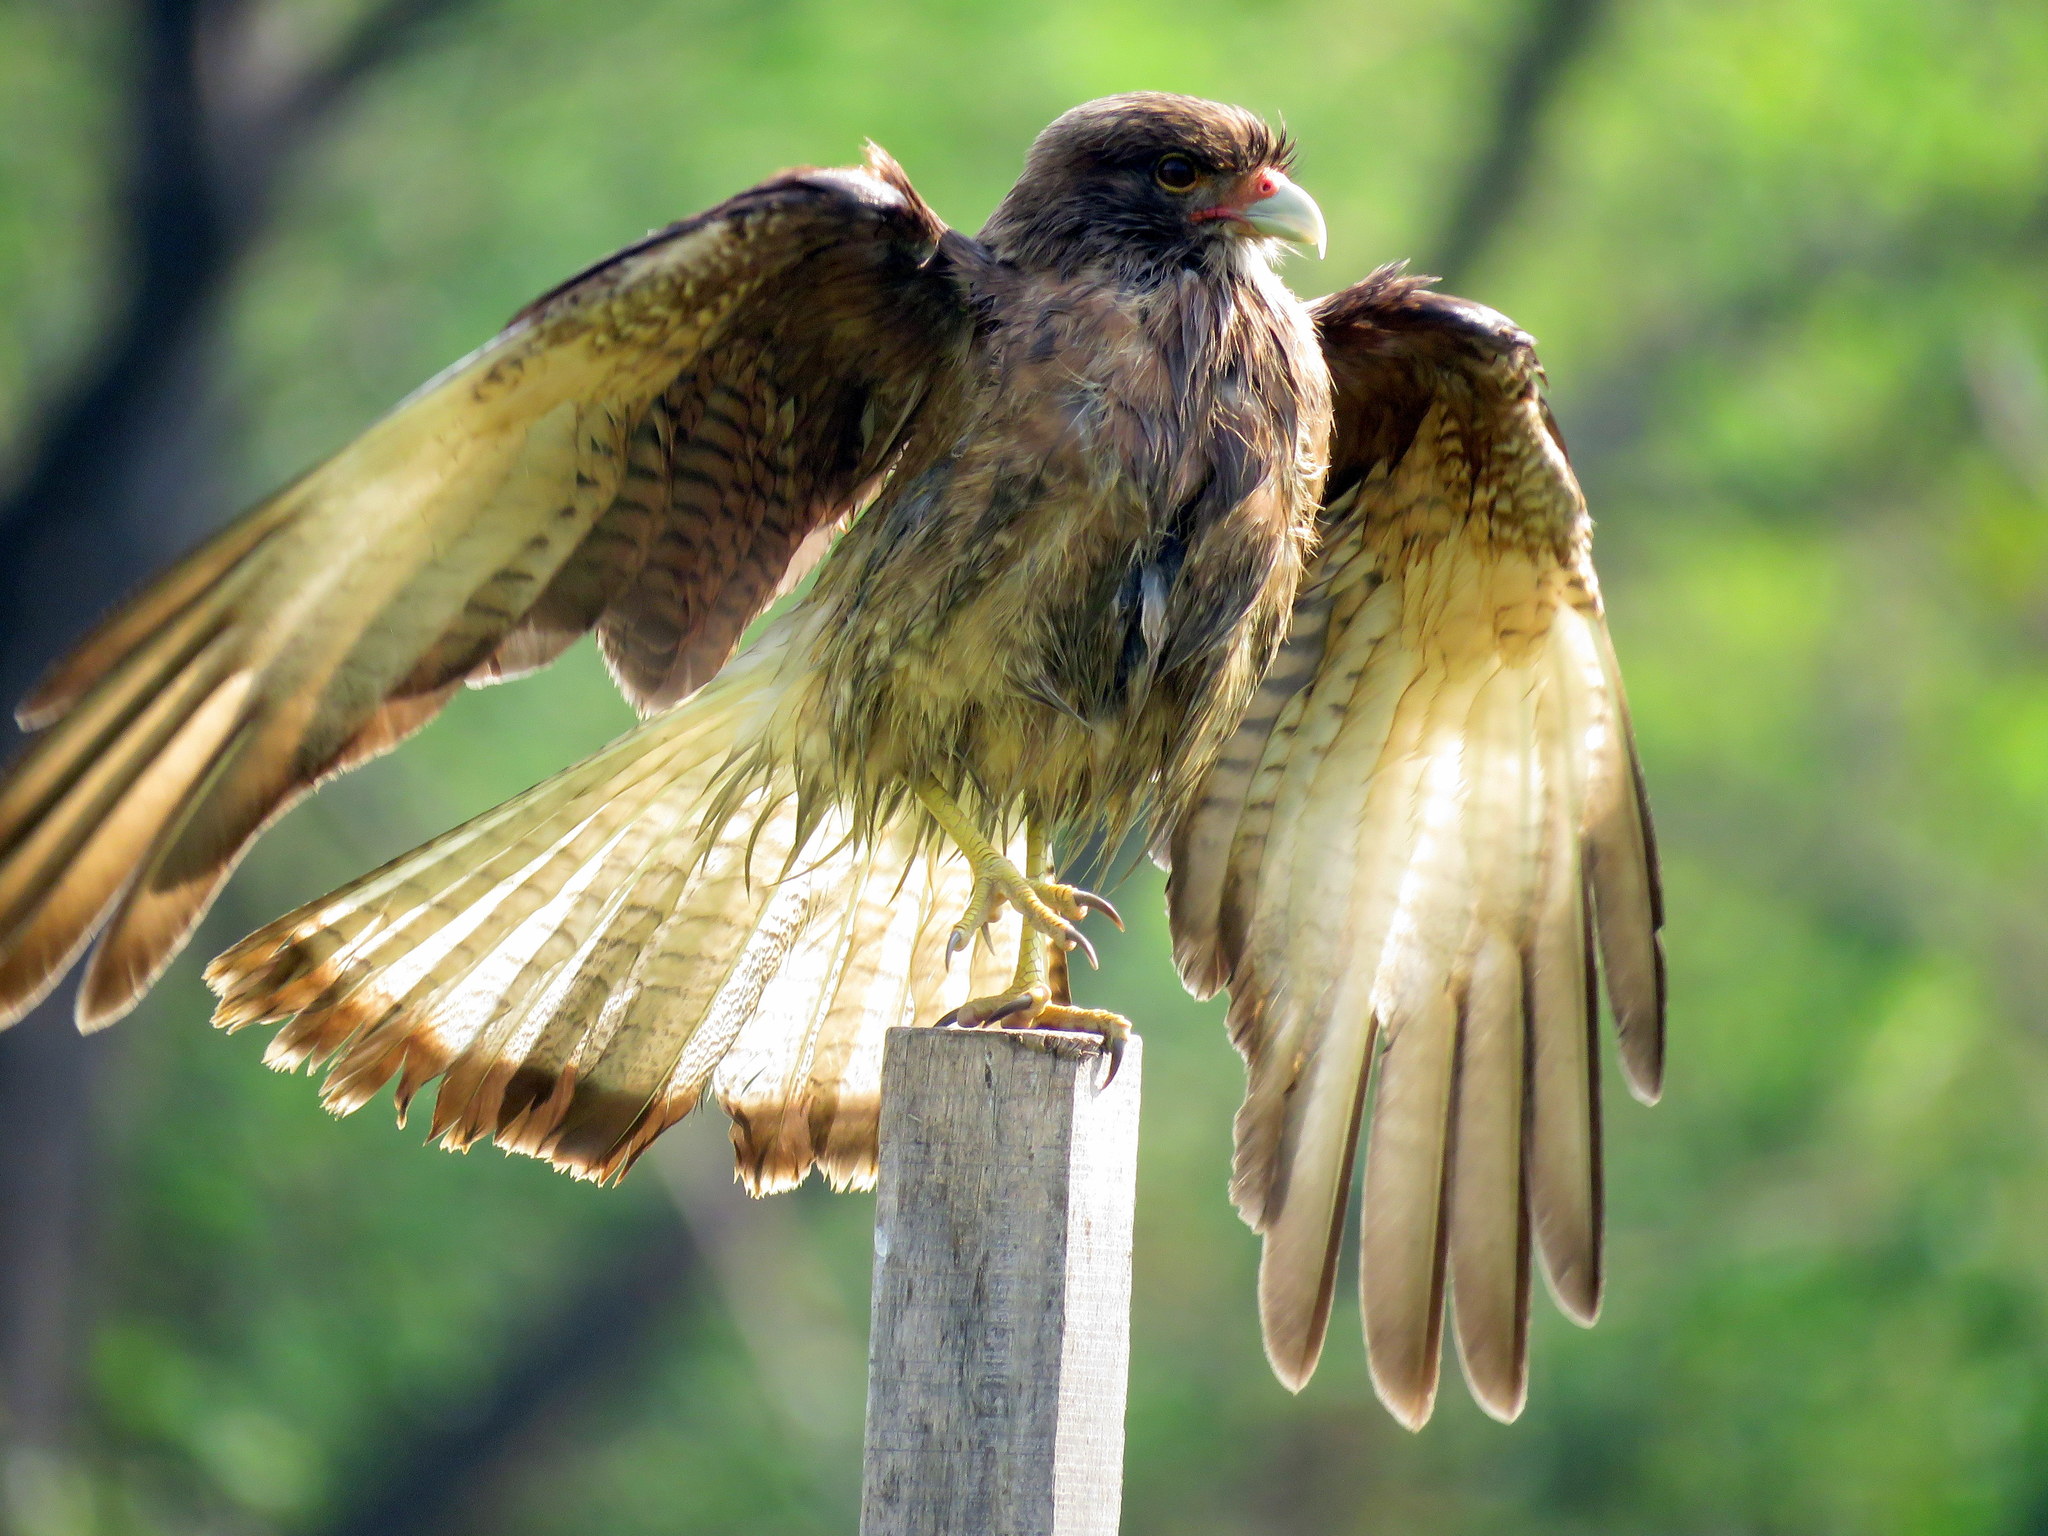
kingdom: Animalia
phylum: Chordata
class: Aves
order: Falconiformes
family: Falconidae
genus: Daptrius
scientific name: Daptrius
